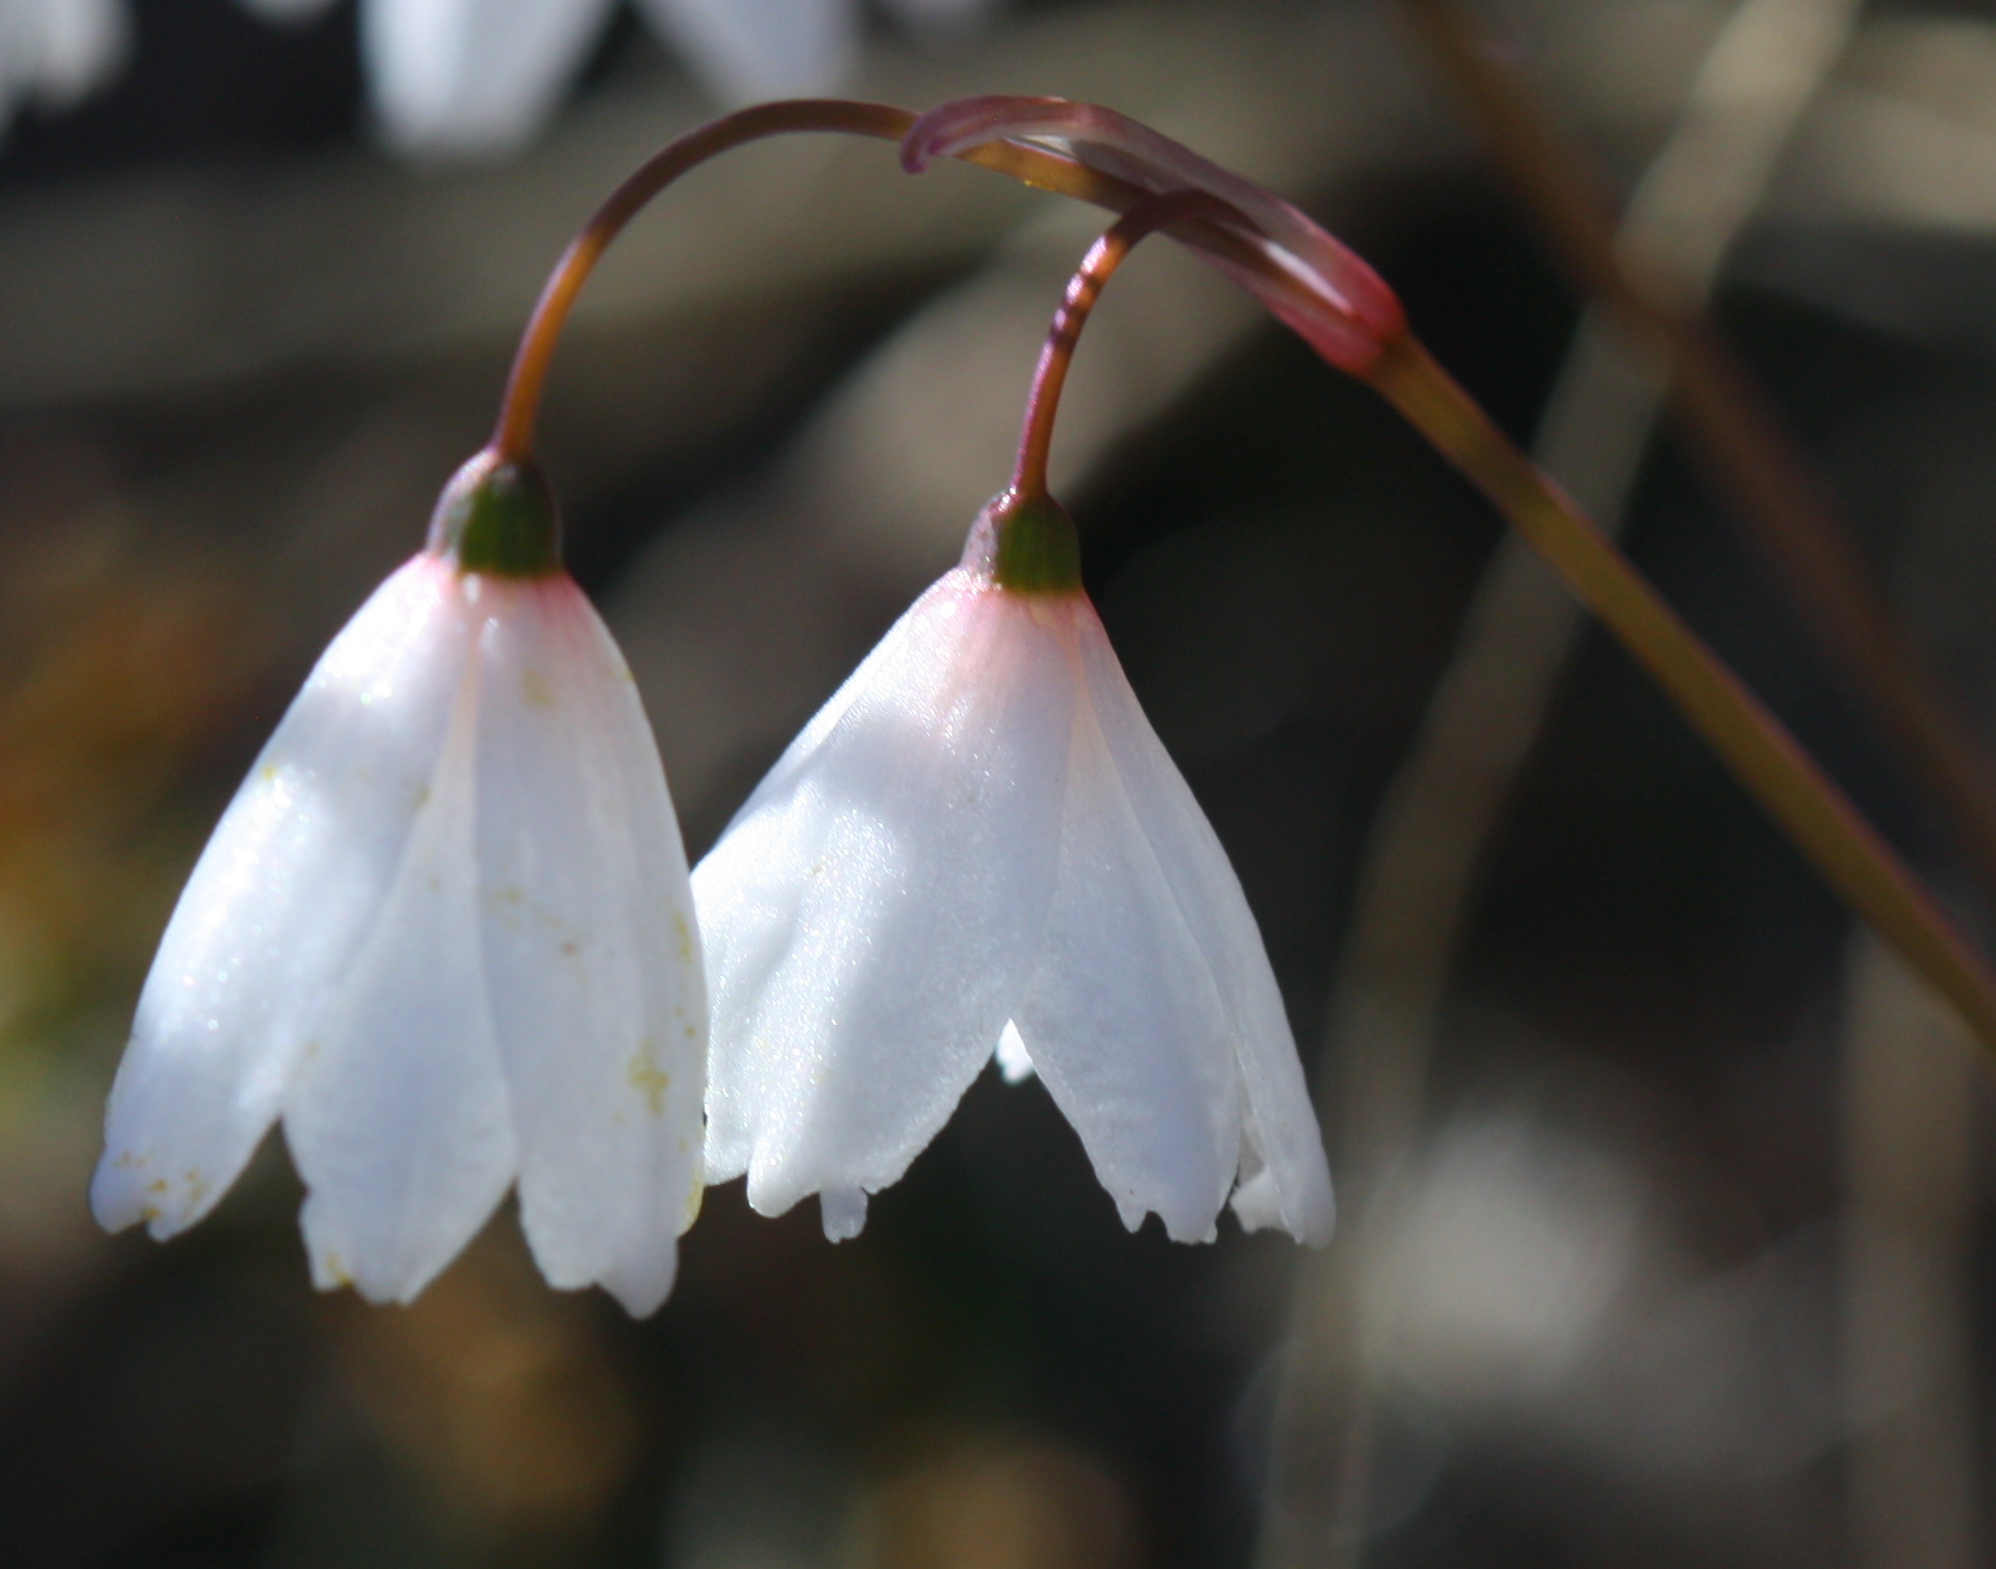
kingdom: Plantae
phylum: Tracheophyta
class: Liliopsida
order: Asparagales
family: Amaryllidaceae
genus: Acis
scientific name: Acis autumnalis
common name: Autumn snowflake
